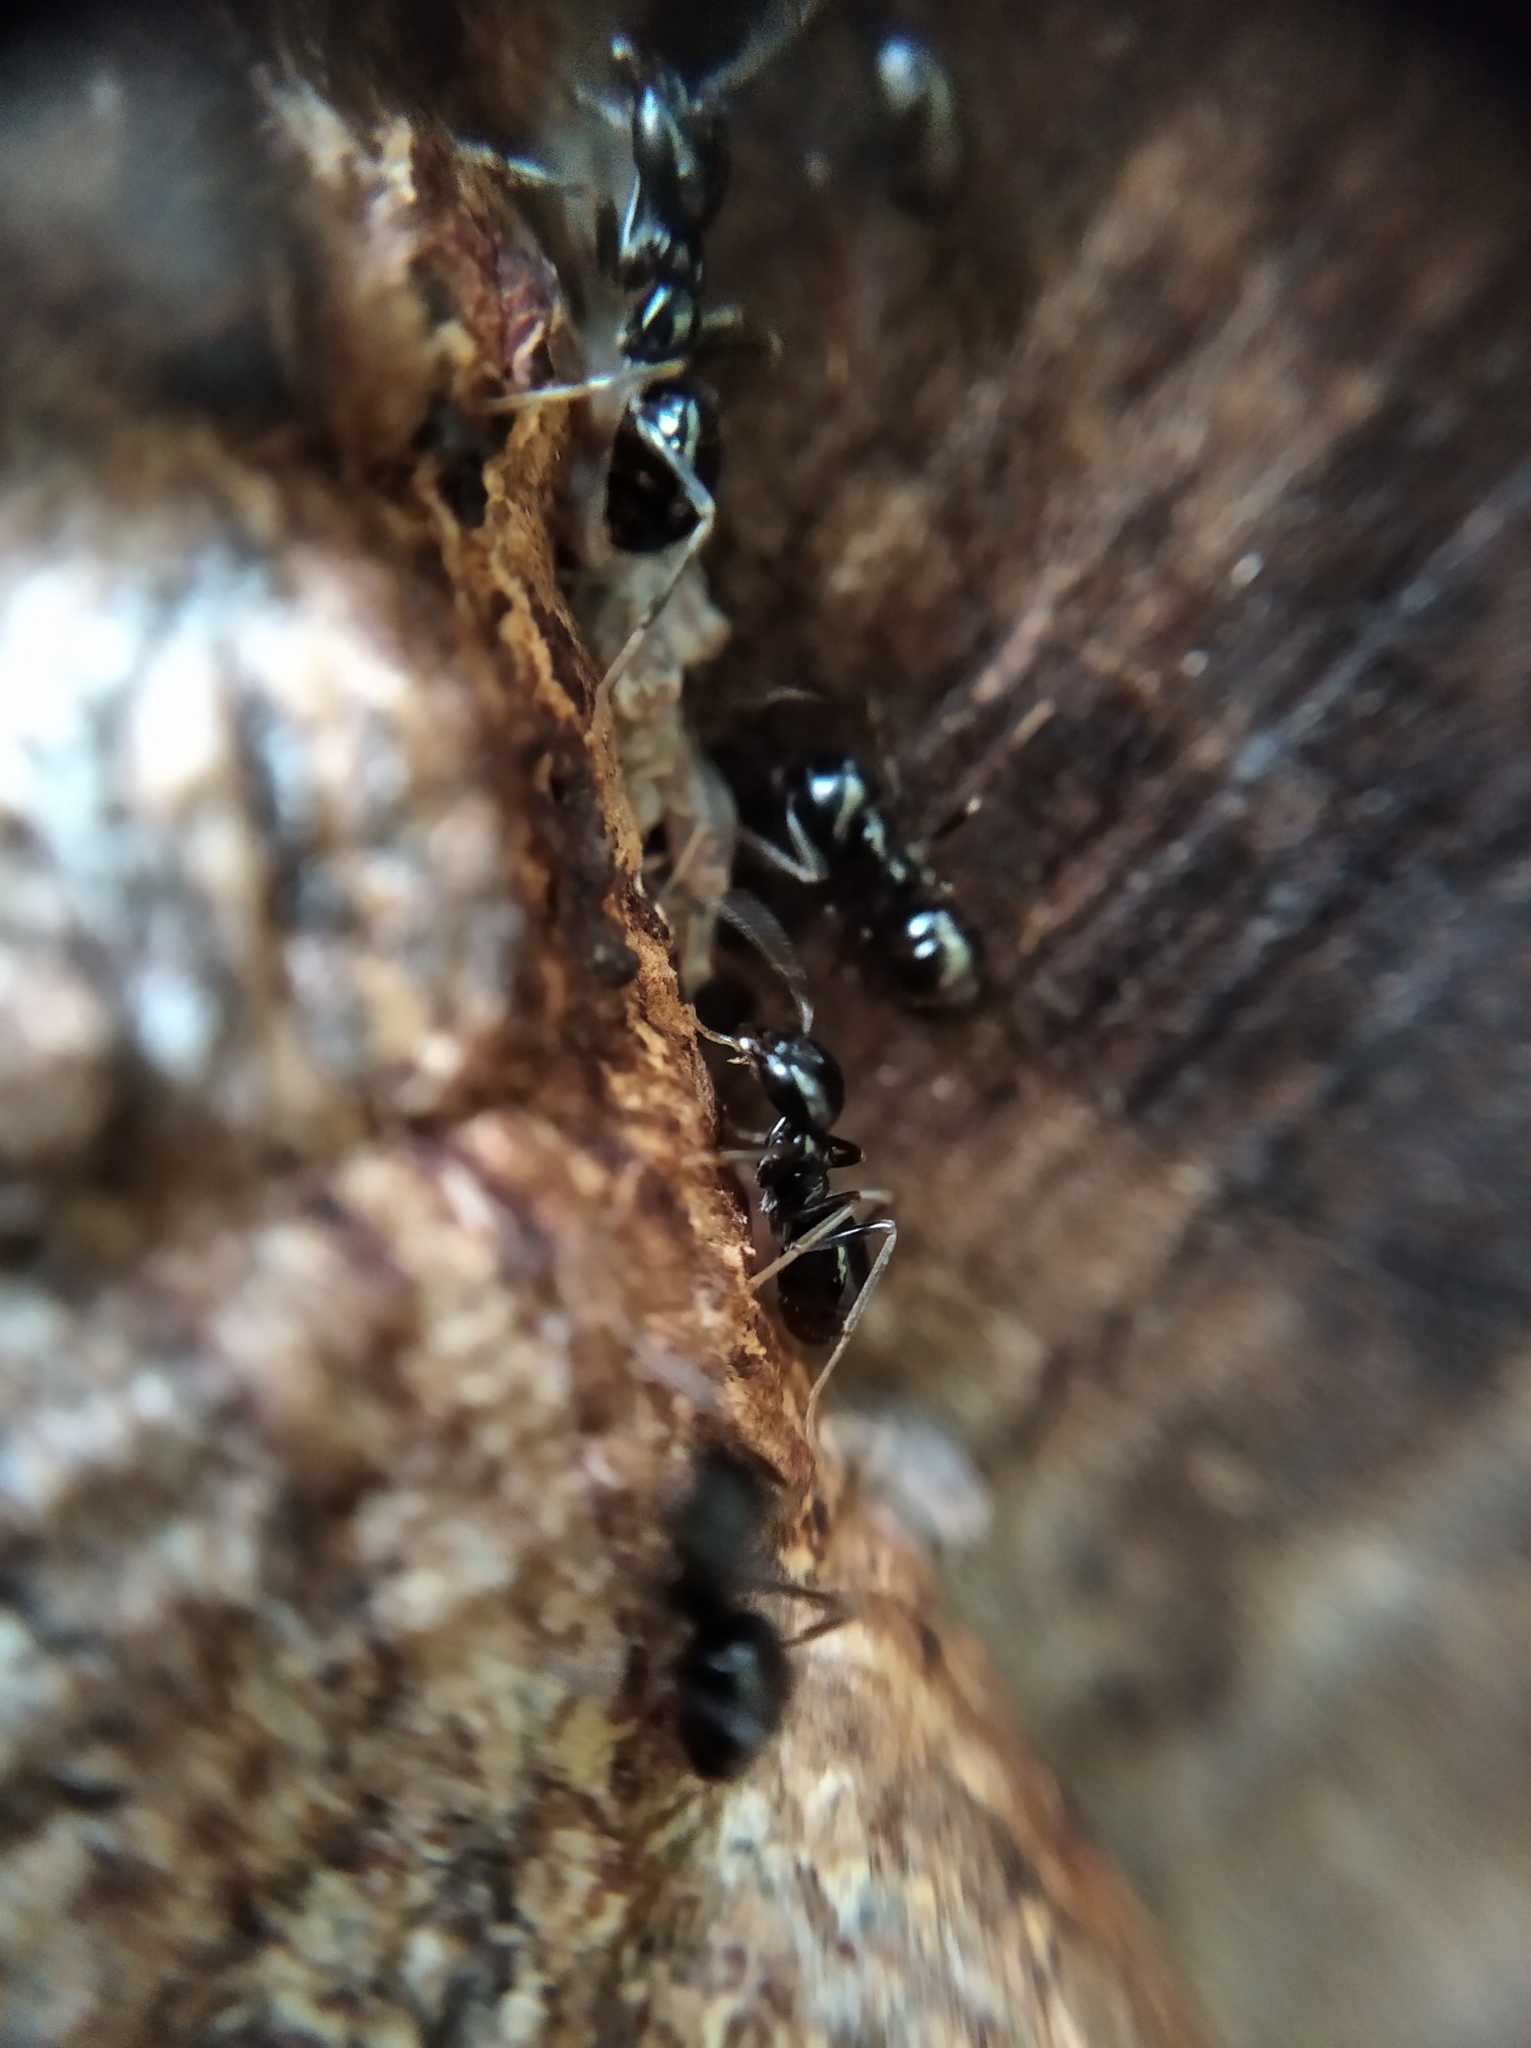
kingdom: Animalia
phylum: Arthropoda
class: Insecta
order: Hymenoptera
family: Formicidae
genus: Lasius
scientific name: Lasius fuliginosus
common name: Jet ant
